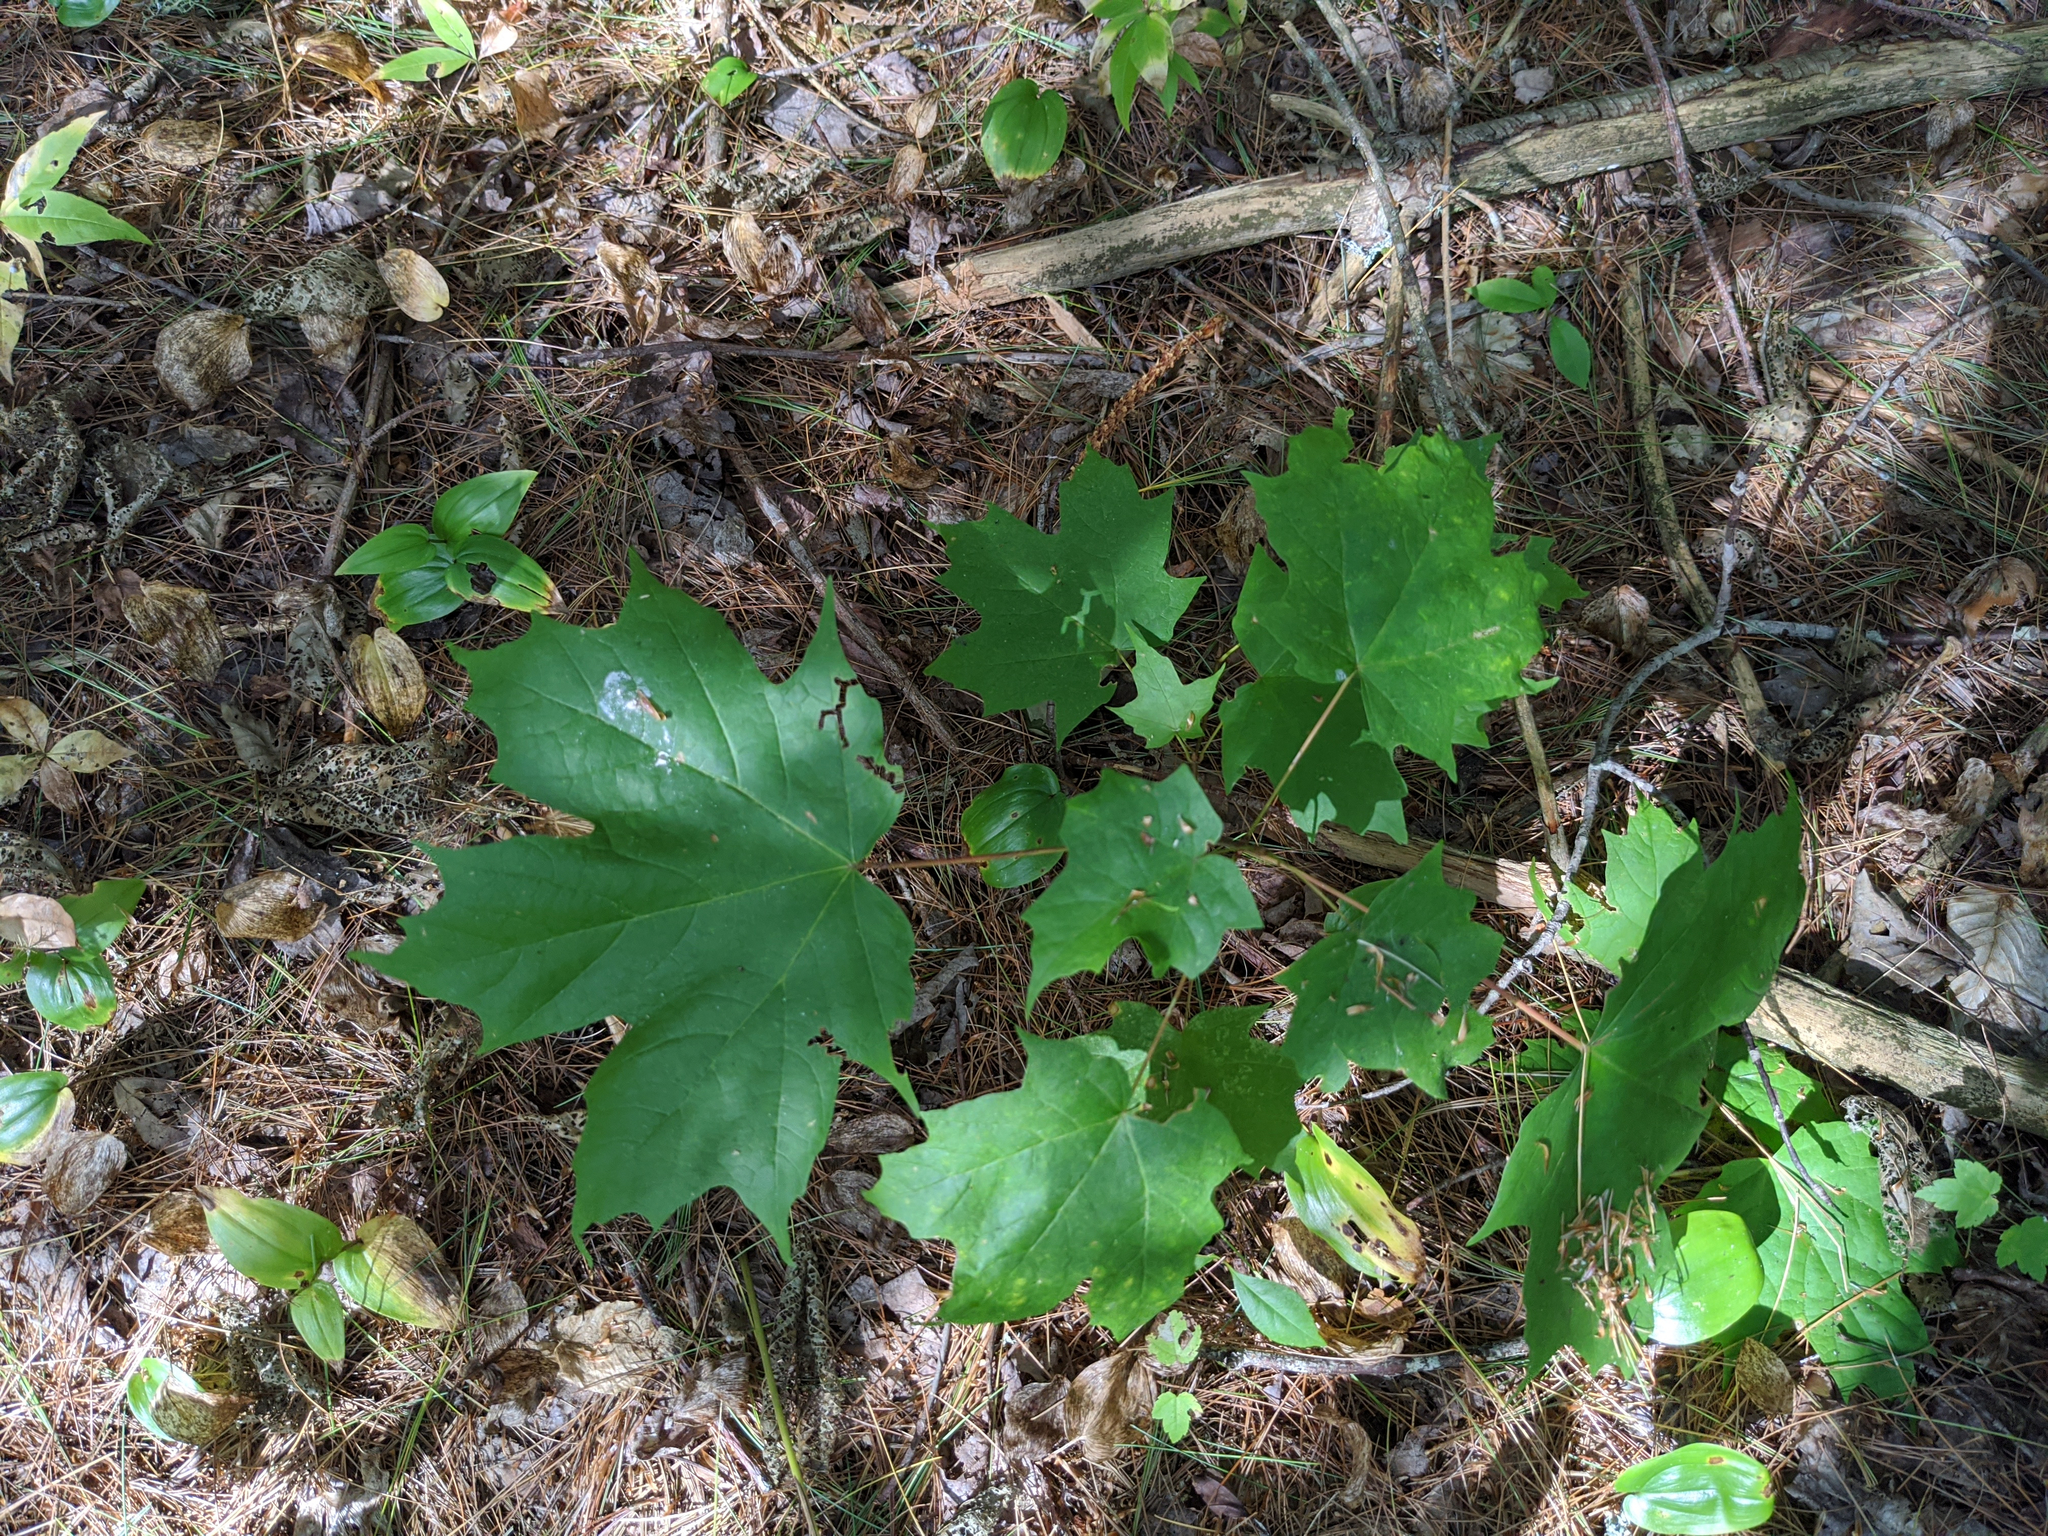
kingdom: Plantae
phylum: Tracheophyta
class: Magnoliopsida
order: Sapindales
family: Sapindaceae
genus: Acer
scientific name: Acer saccharum
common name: Sugar maple
